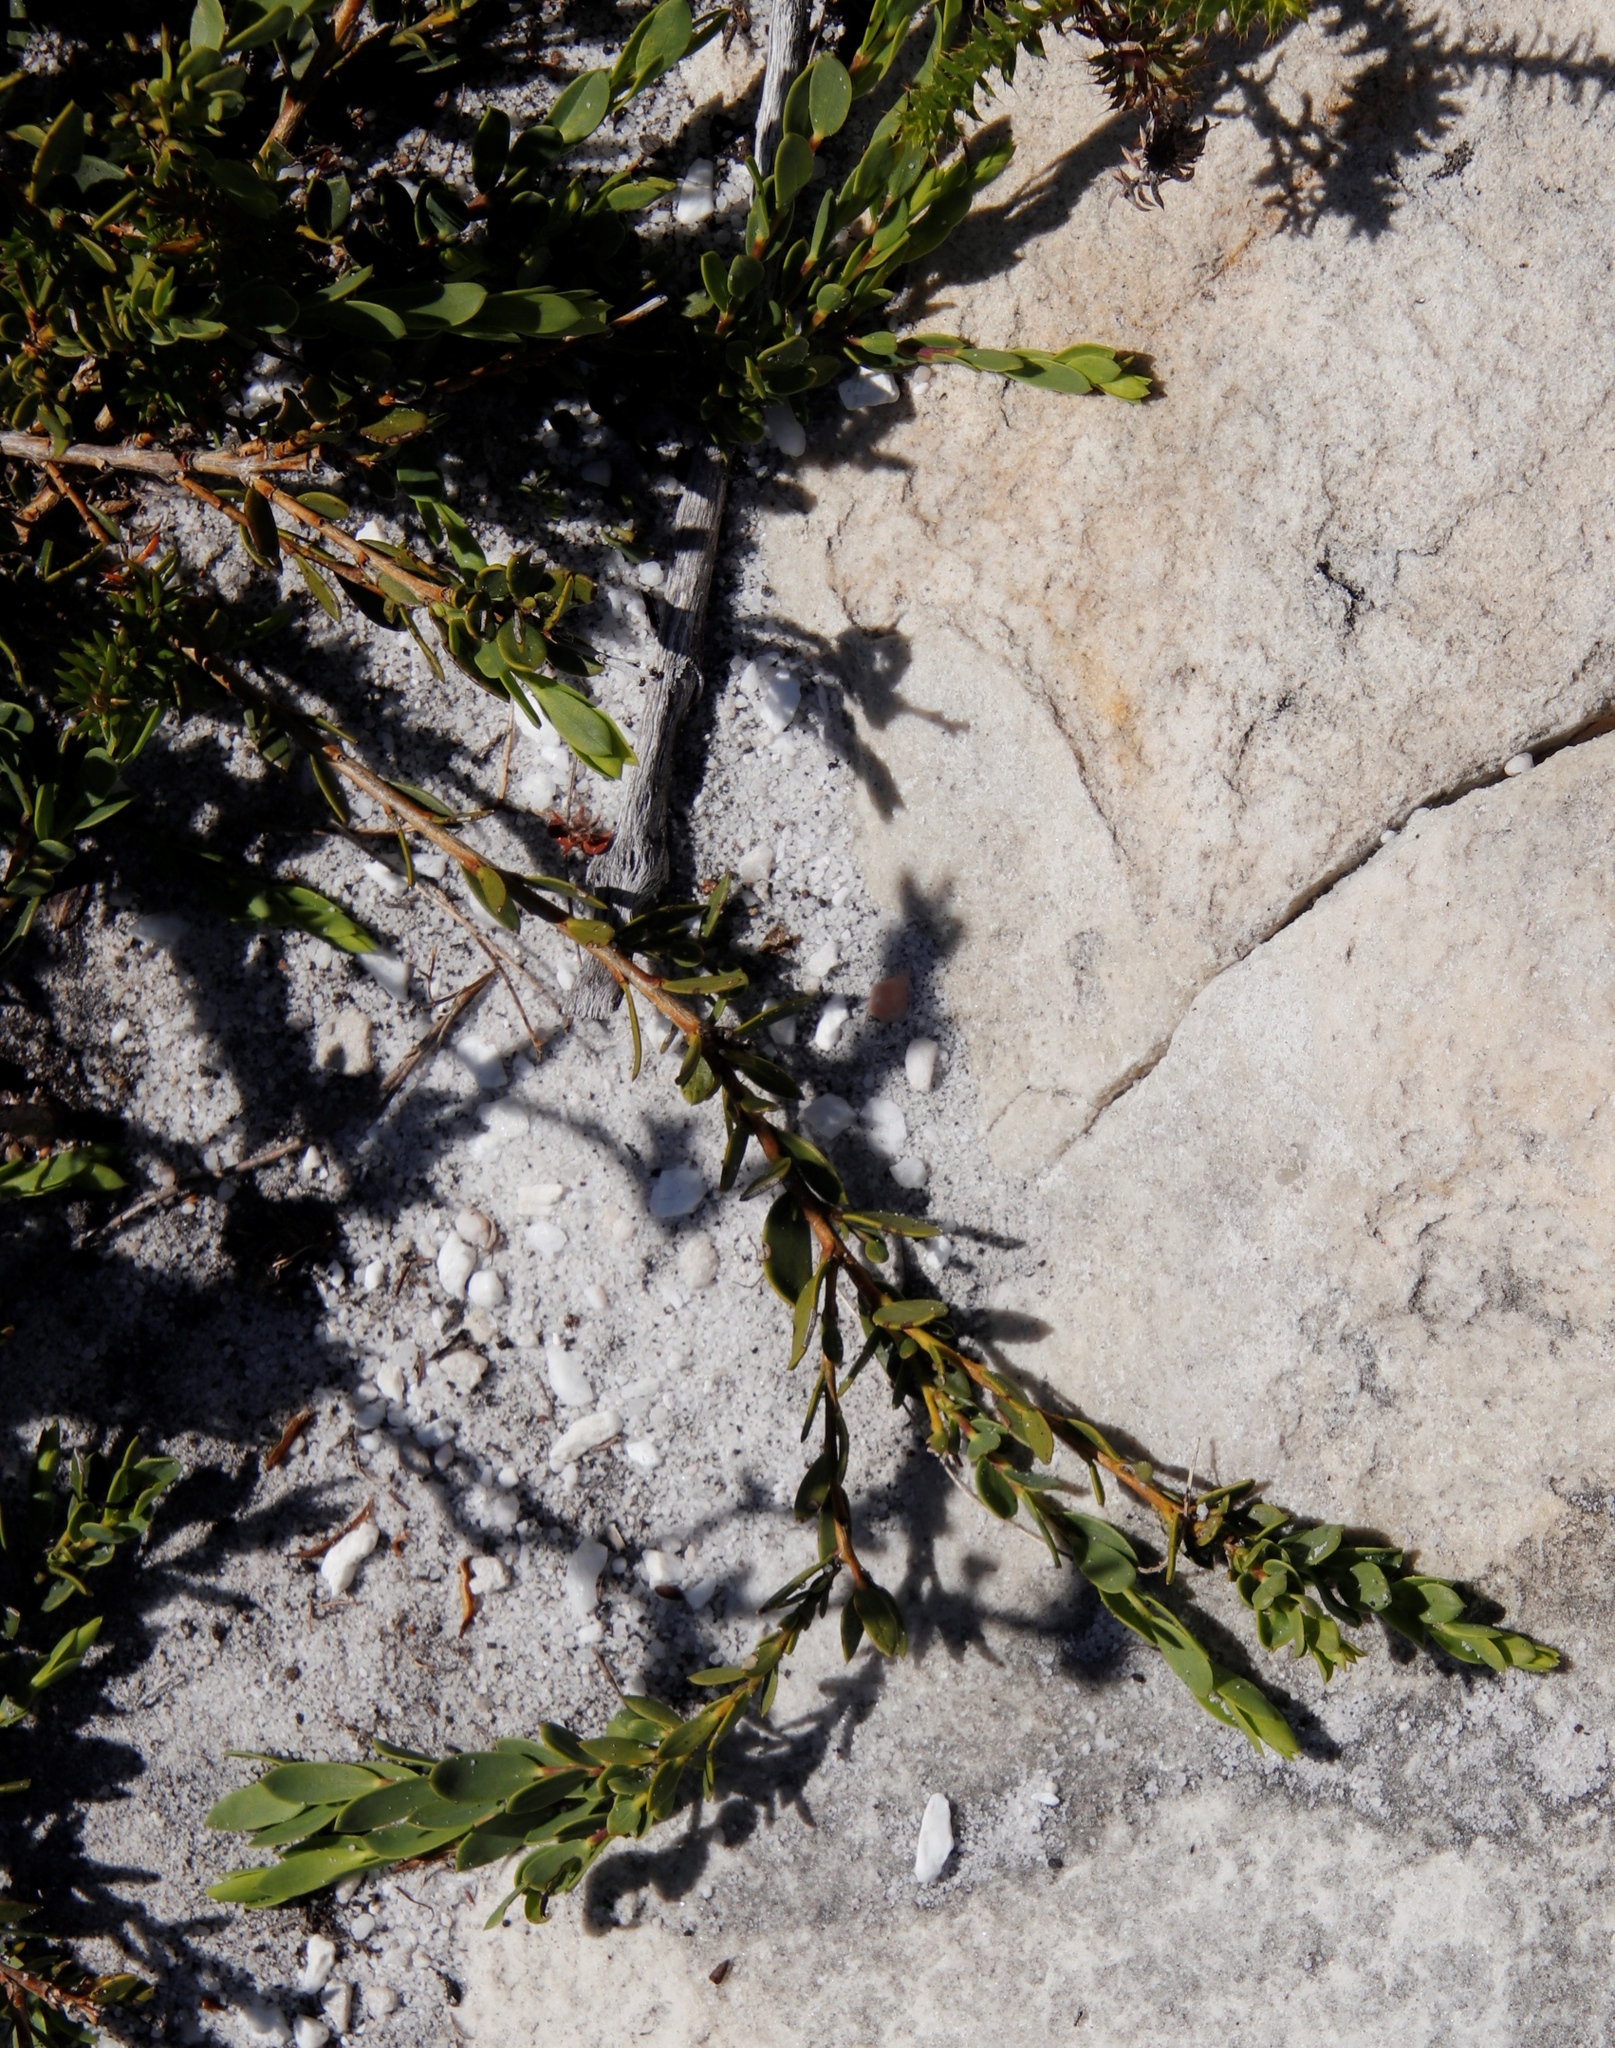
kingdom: Plantae
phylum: Tracheophyta
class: Magnoliopsida
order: Fabales
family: Fabaceae
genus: Liparia
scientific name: Liparia parva
